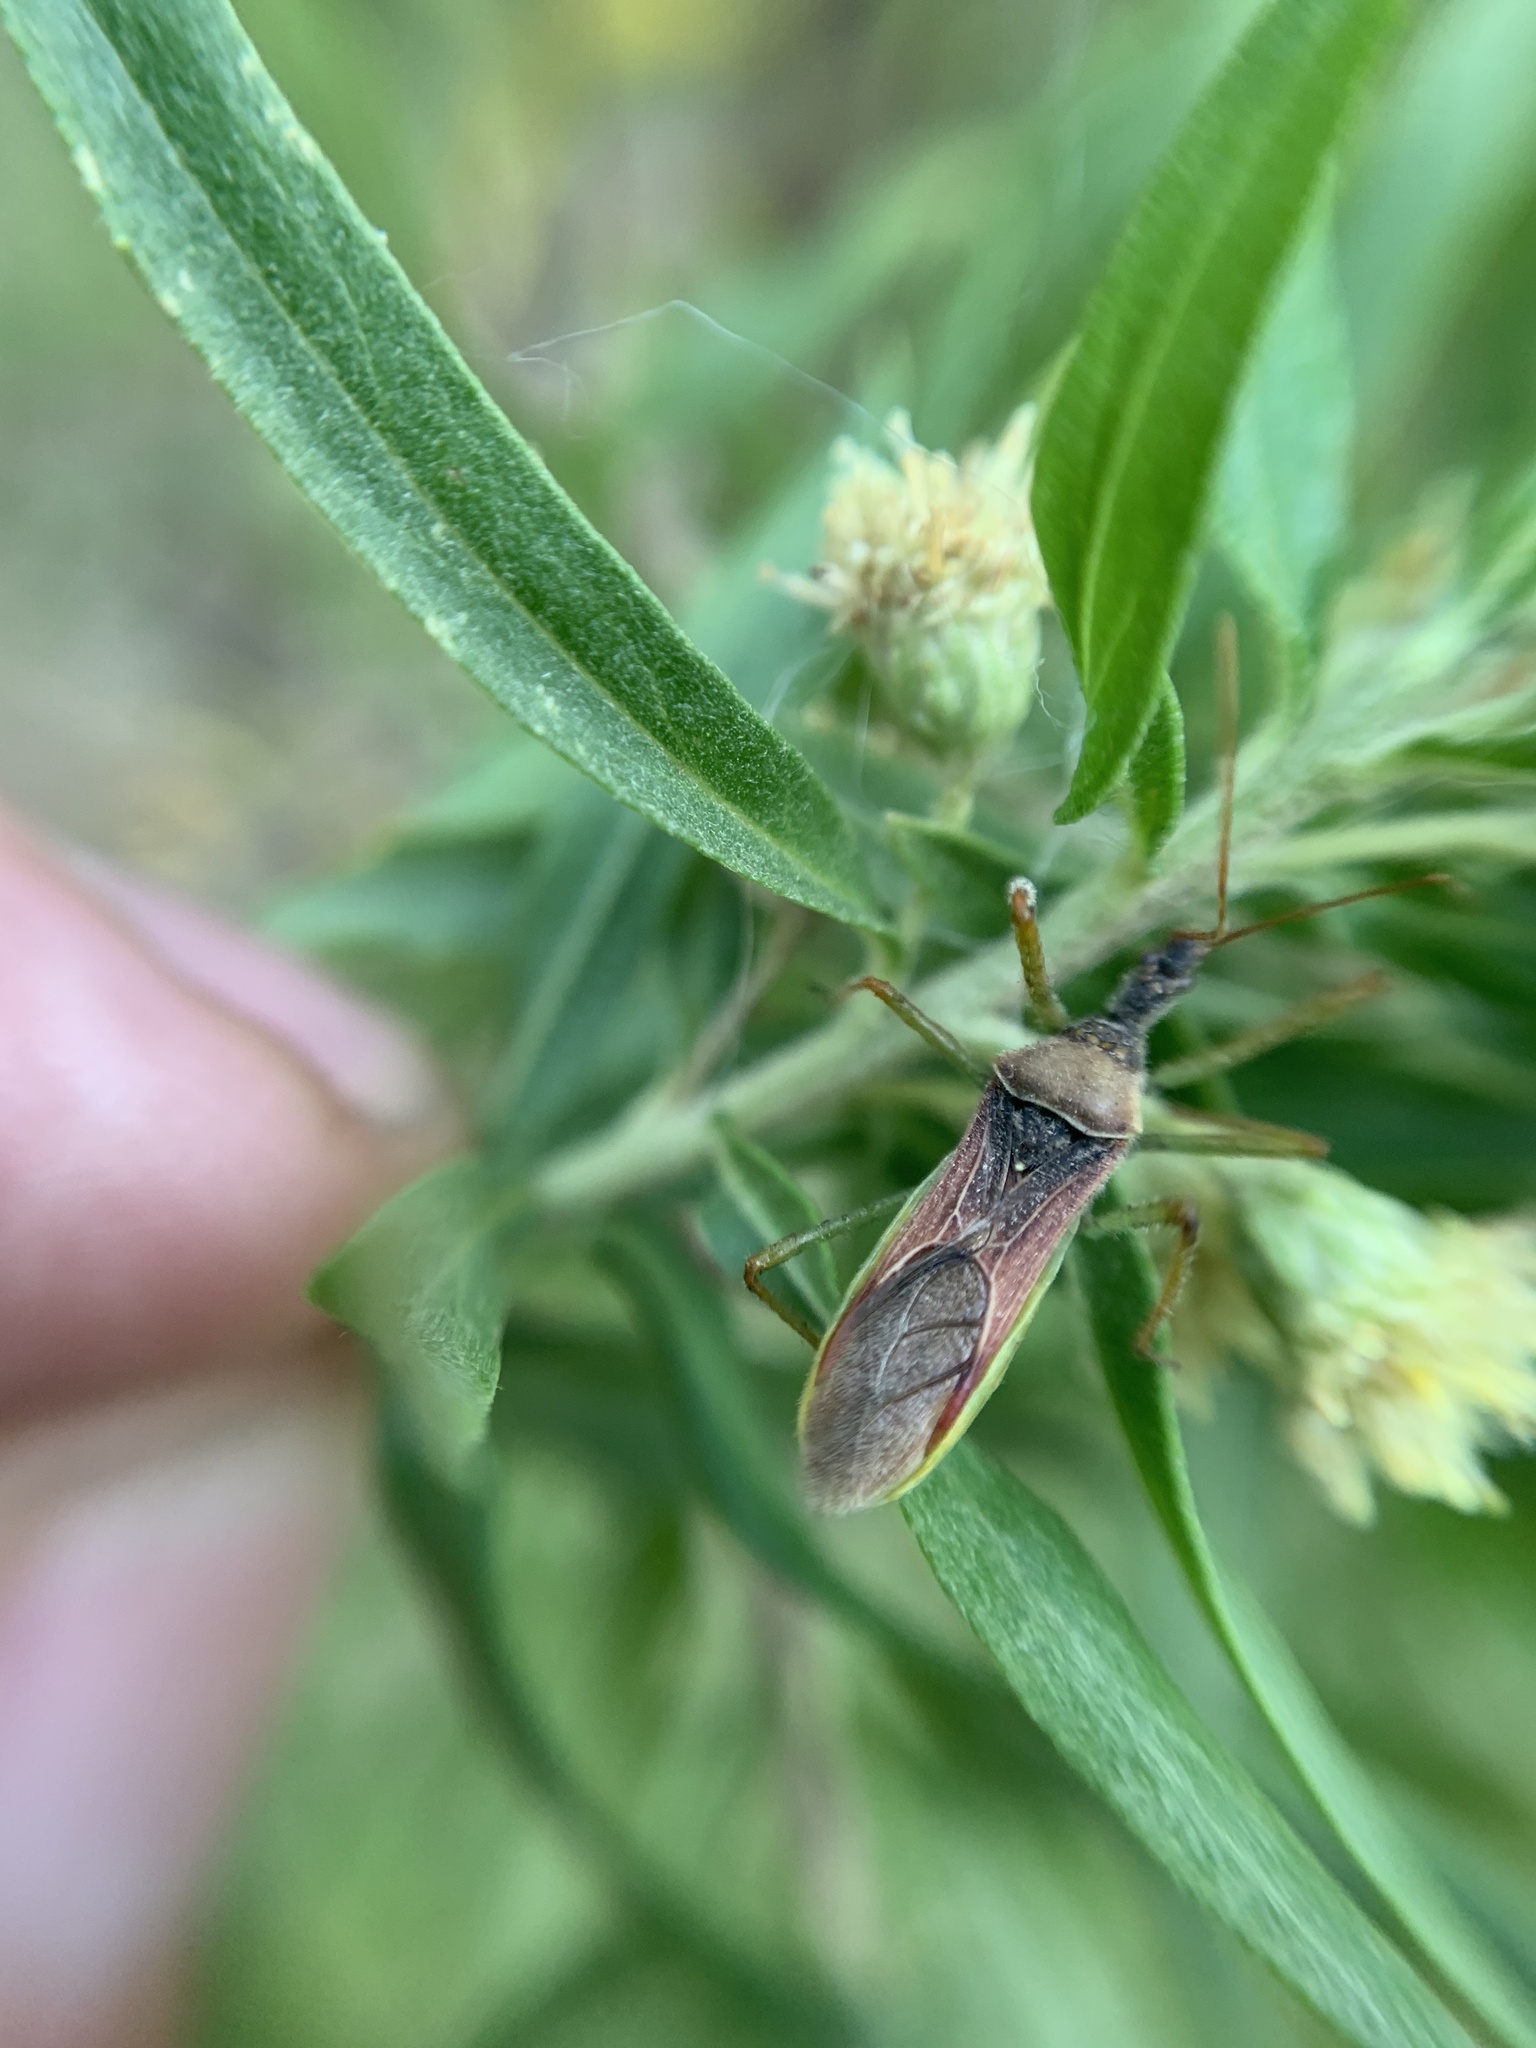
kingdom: Animalia
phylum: Arthropoda
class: Insecta
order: Hemiptera
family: Reduviidae
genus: Zelus
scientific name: Zelus renardii
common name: Assassin bug
